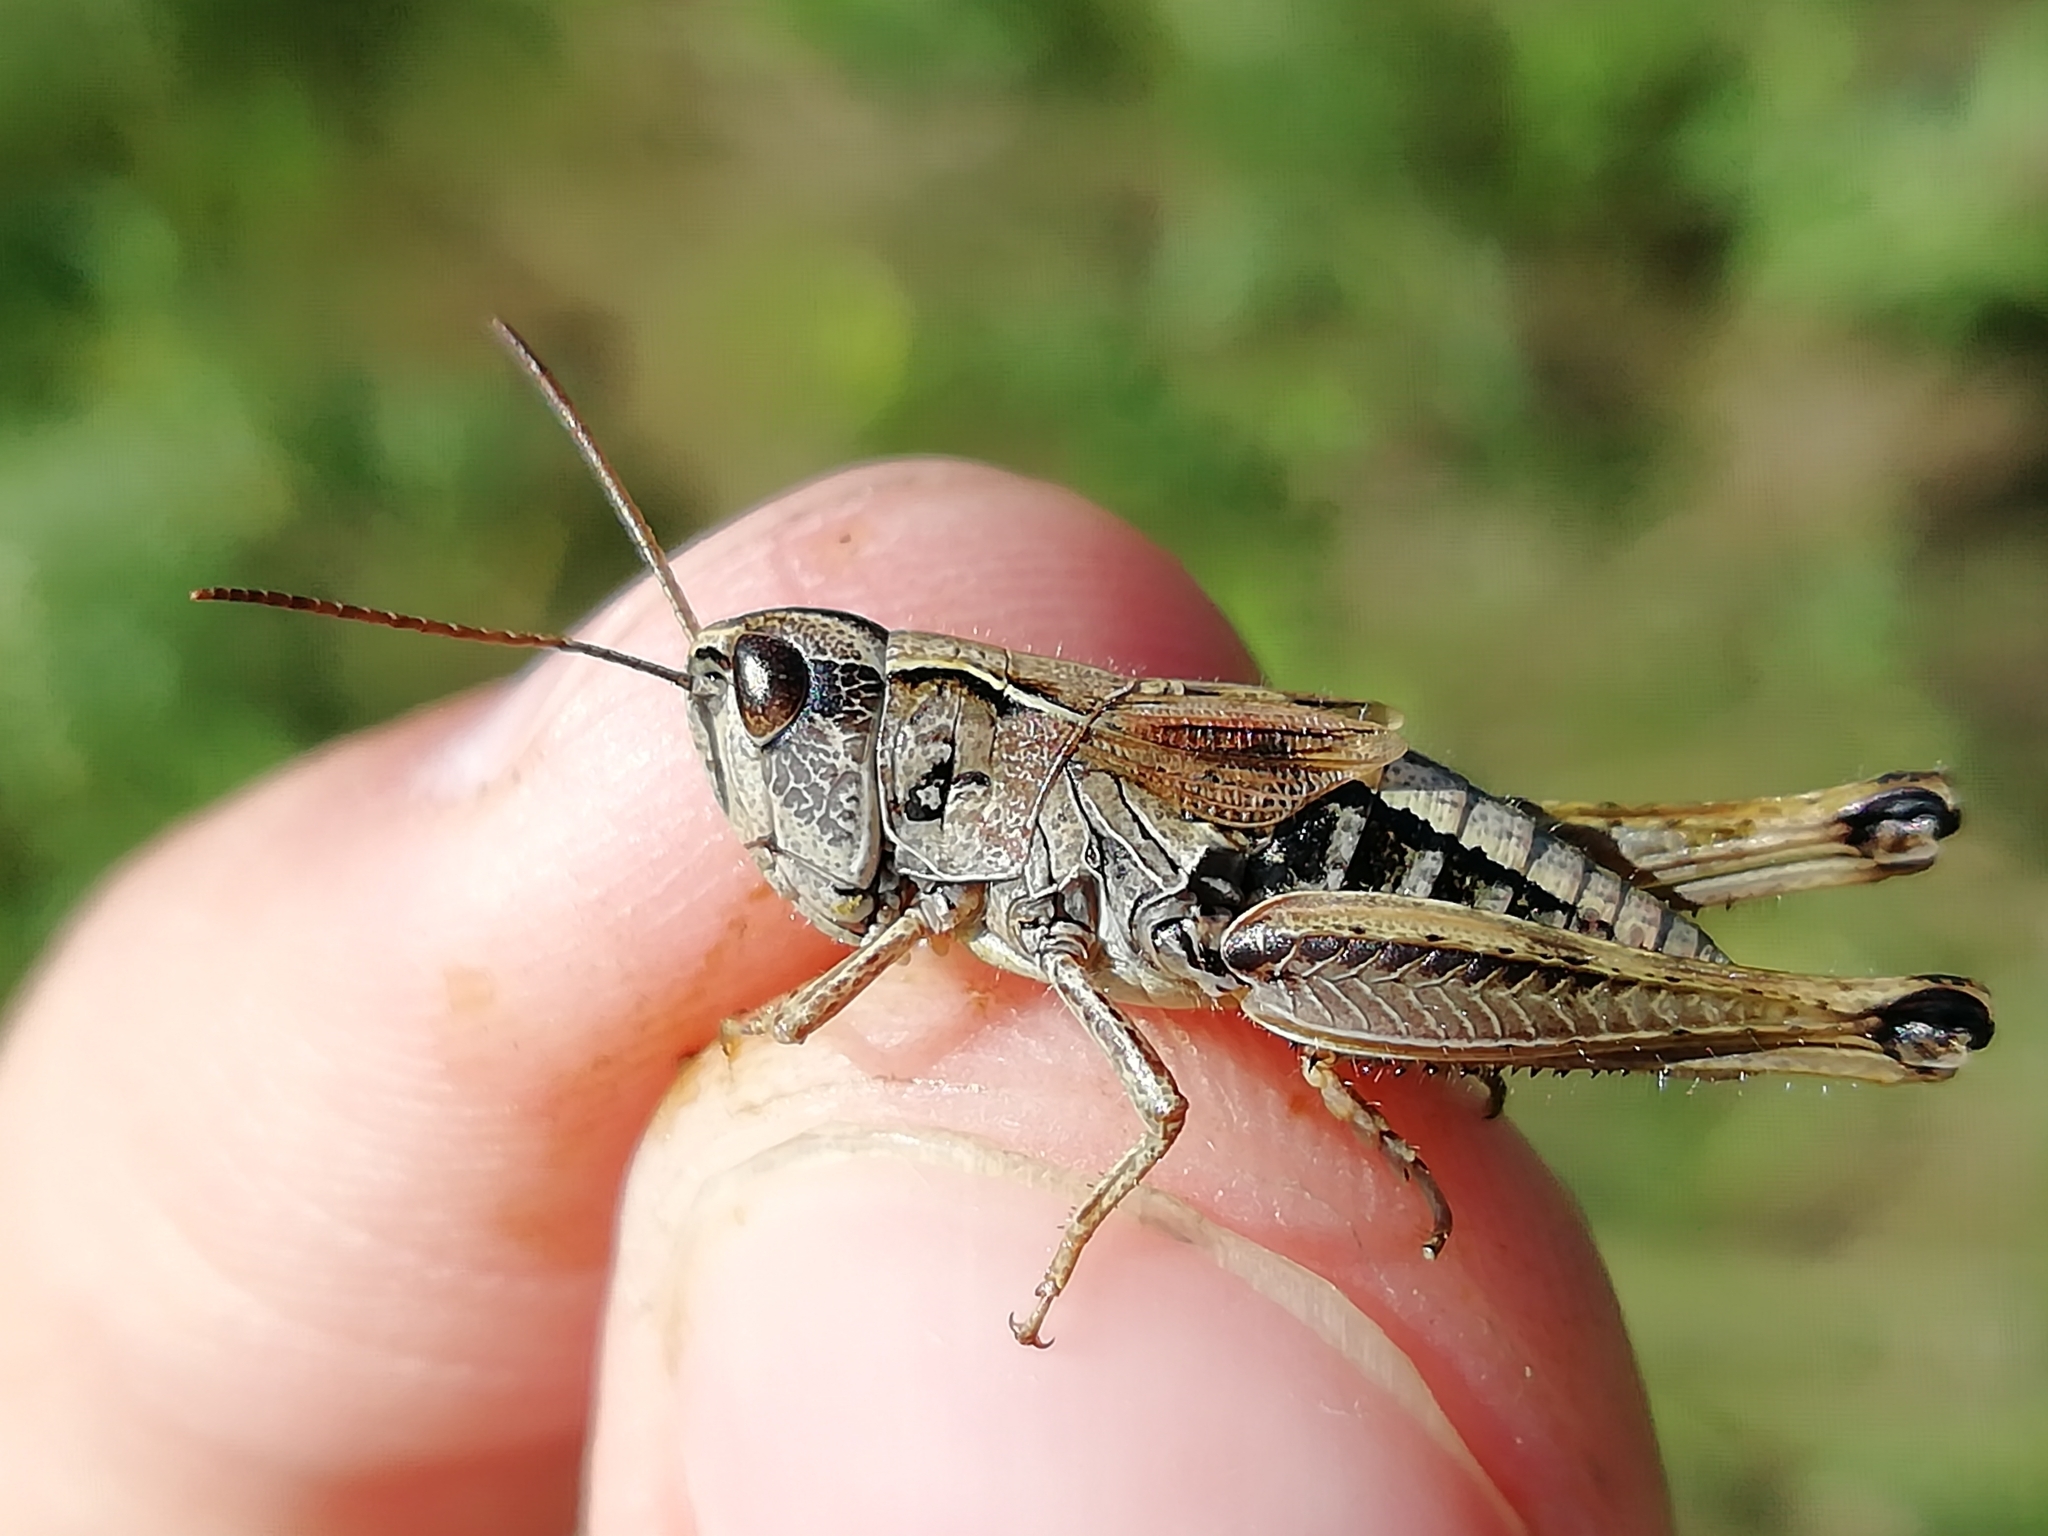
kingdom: Animalia
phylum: Arthropoda
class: Insecta
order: Orthoptera
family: Acrididae
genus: Chorthippus
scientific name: Chorthippus fallax
